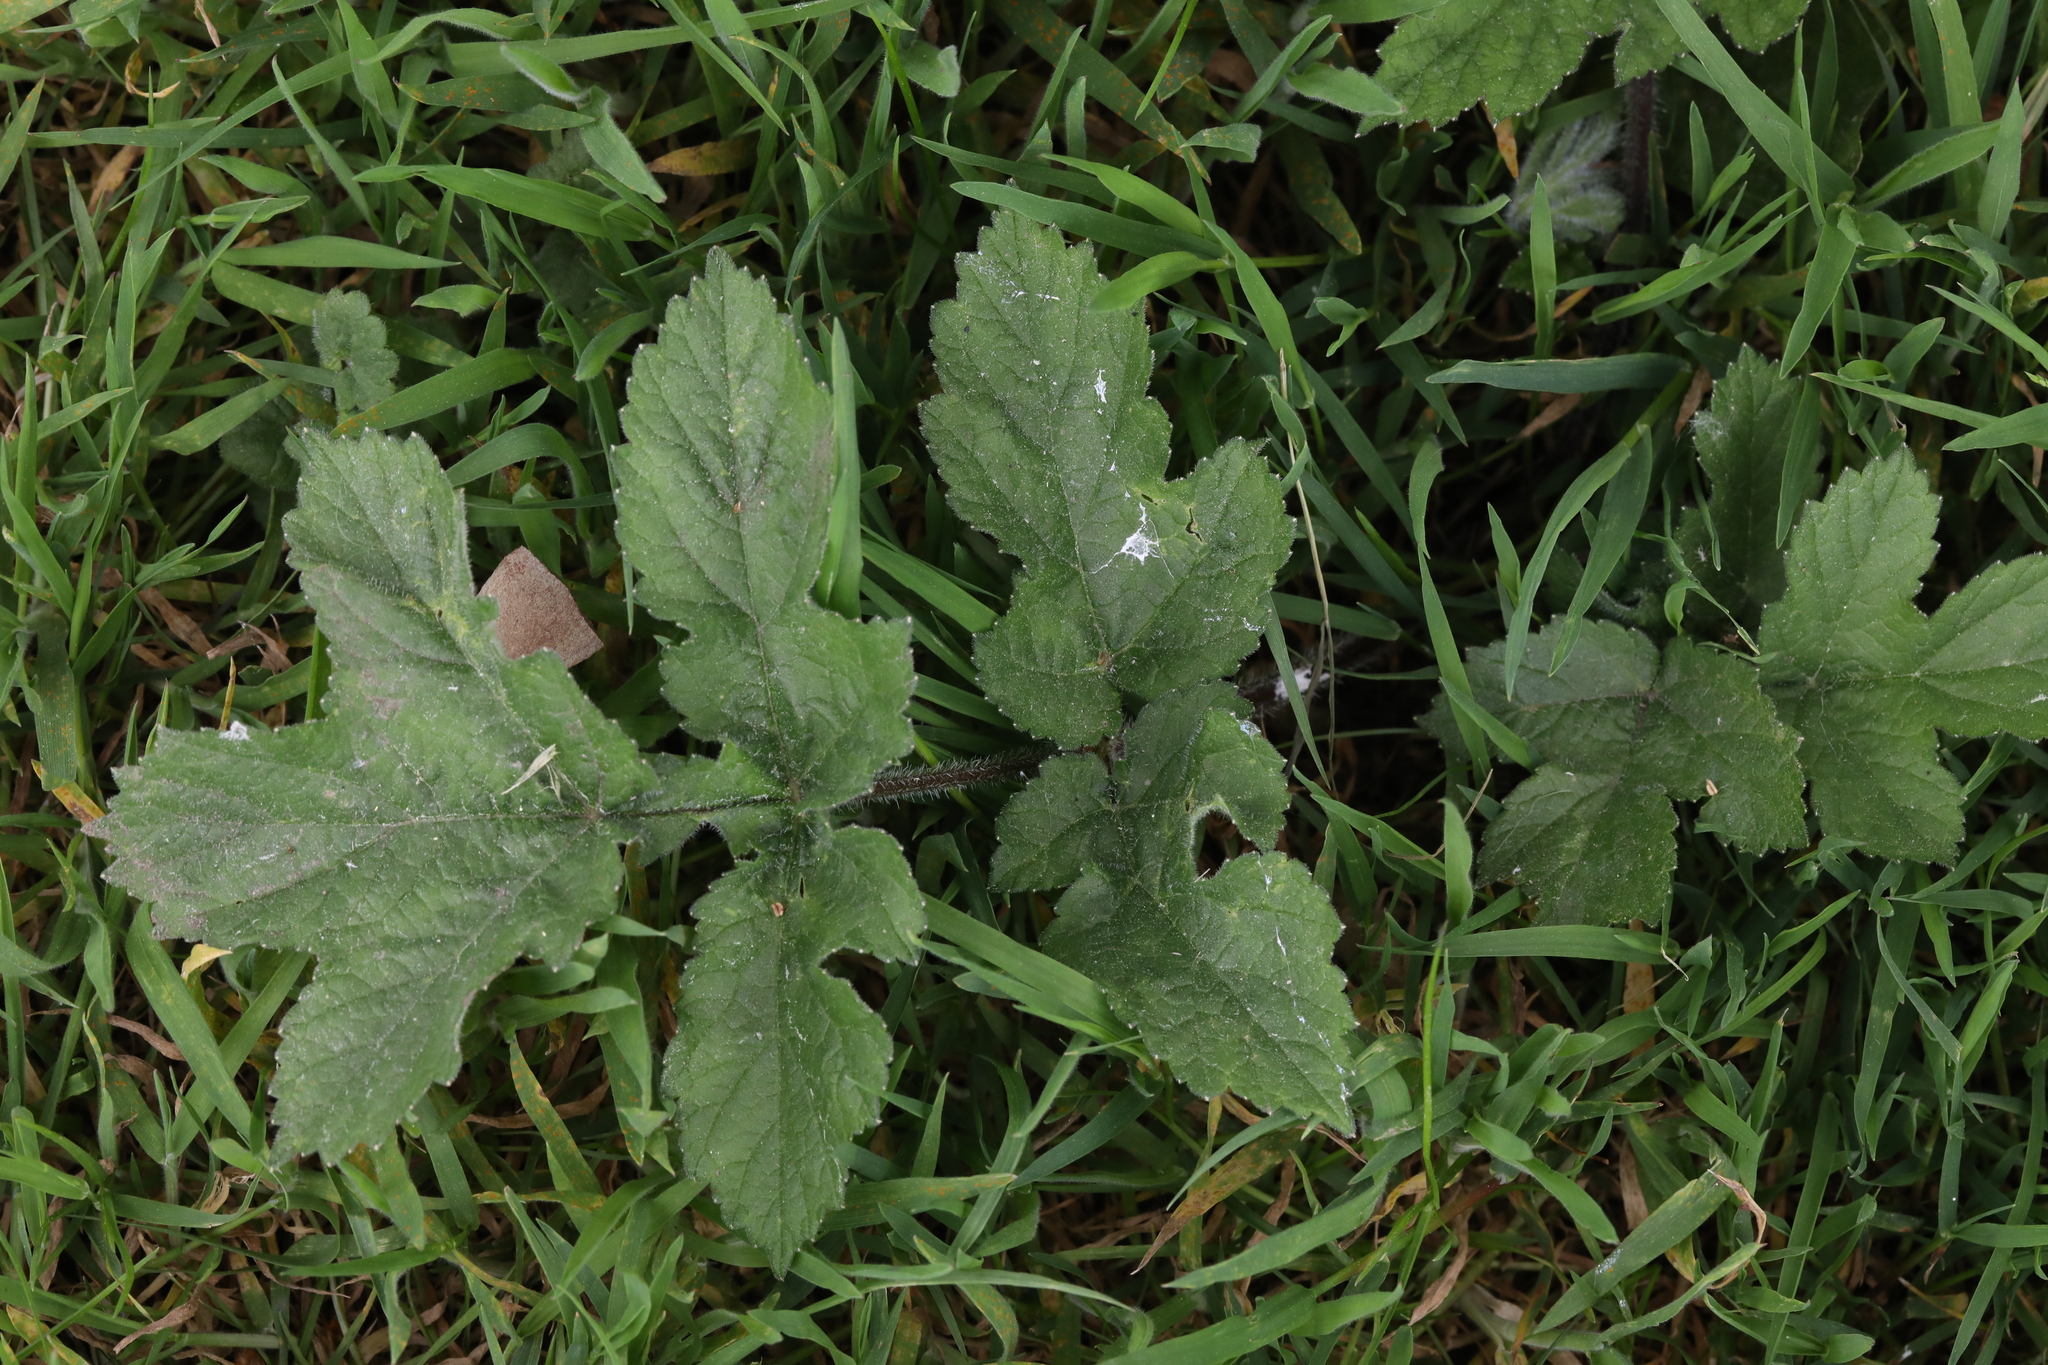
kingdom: Plantae
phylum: Tracheophyta
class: Magnoliopsida
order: Apiales
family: Apiaceae
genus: Heracleum
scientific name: Heracleum sphondylium
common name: Hogweed
